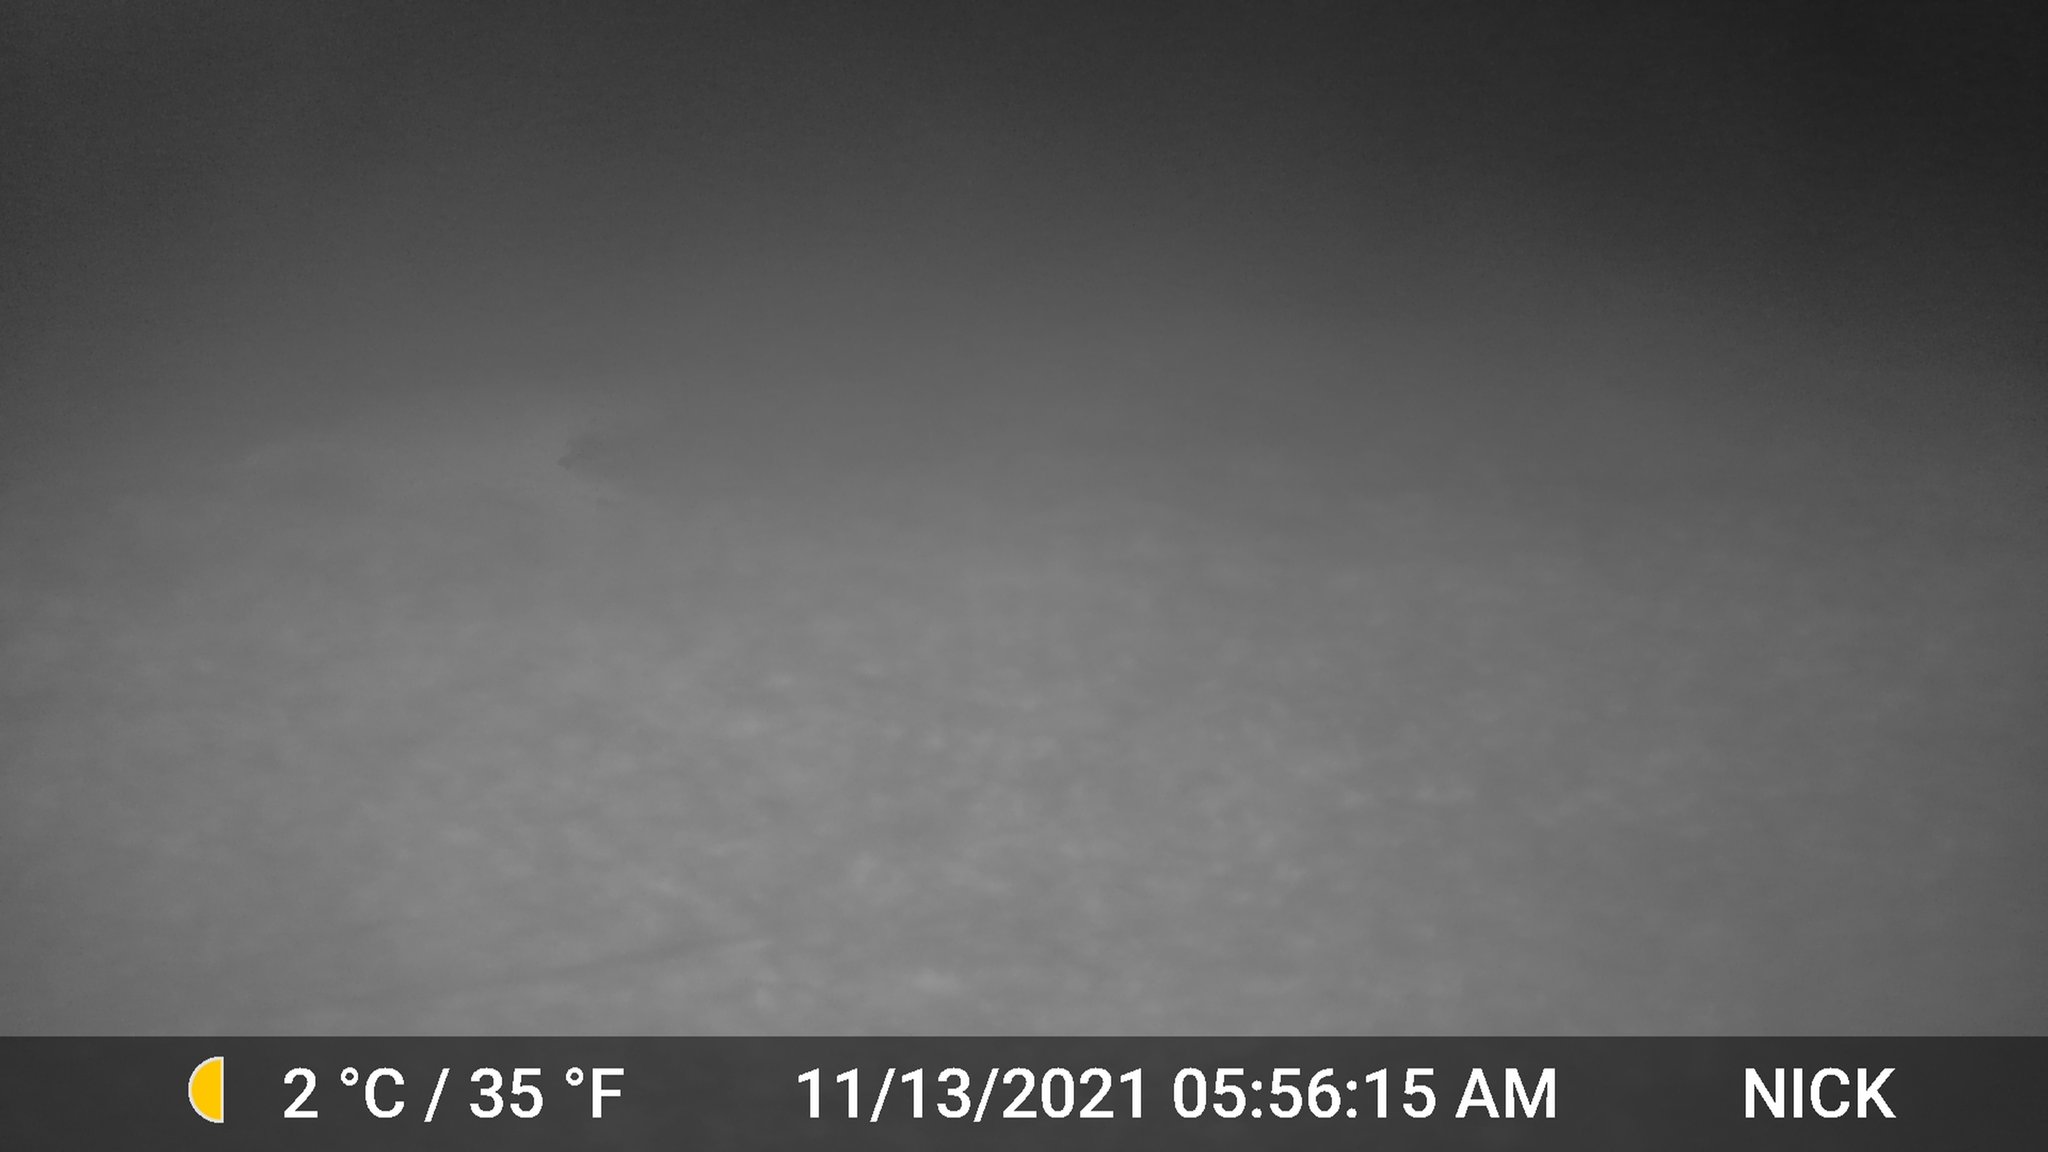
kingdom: Animalia
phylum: Chordata
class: Mammalia
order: Artiodactyla
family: Cervidae
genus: Odocoileus
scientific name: Odocoileus virginianus
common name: White-tailed deer
